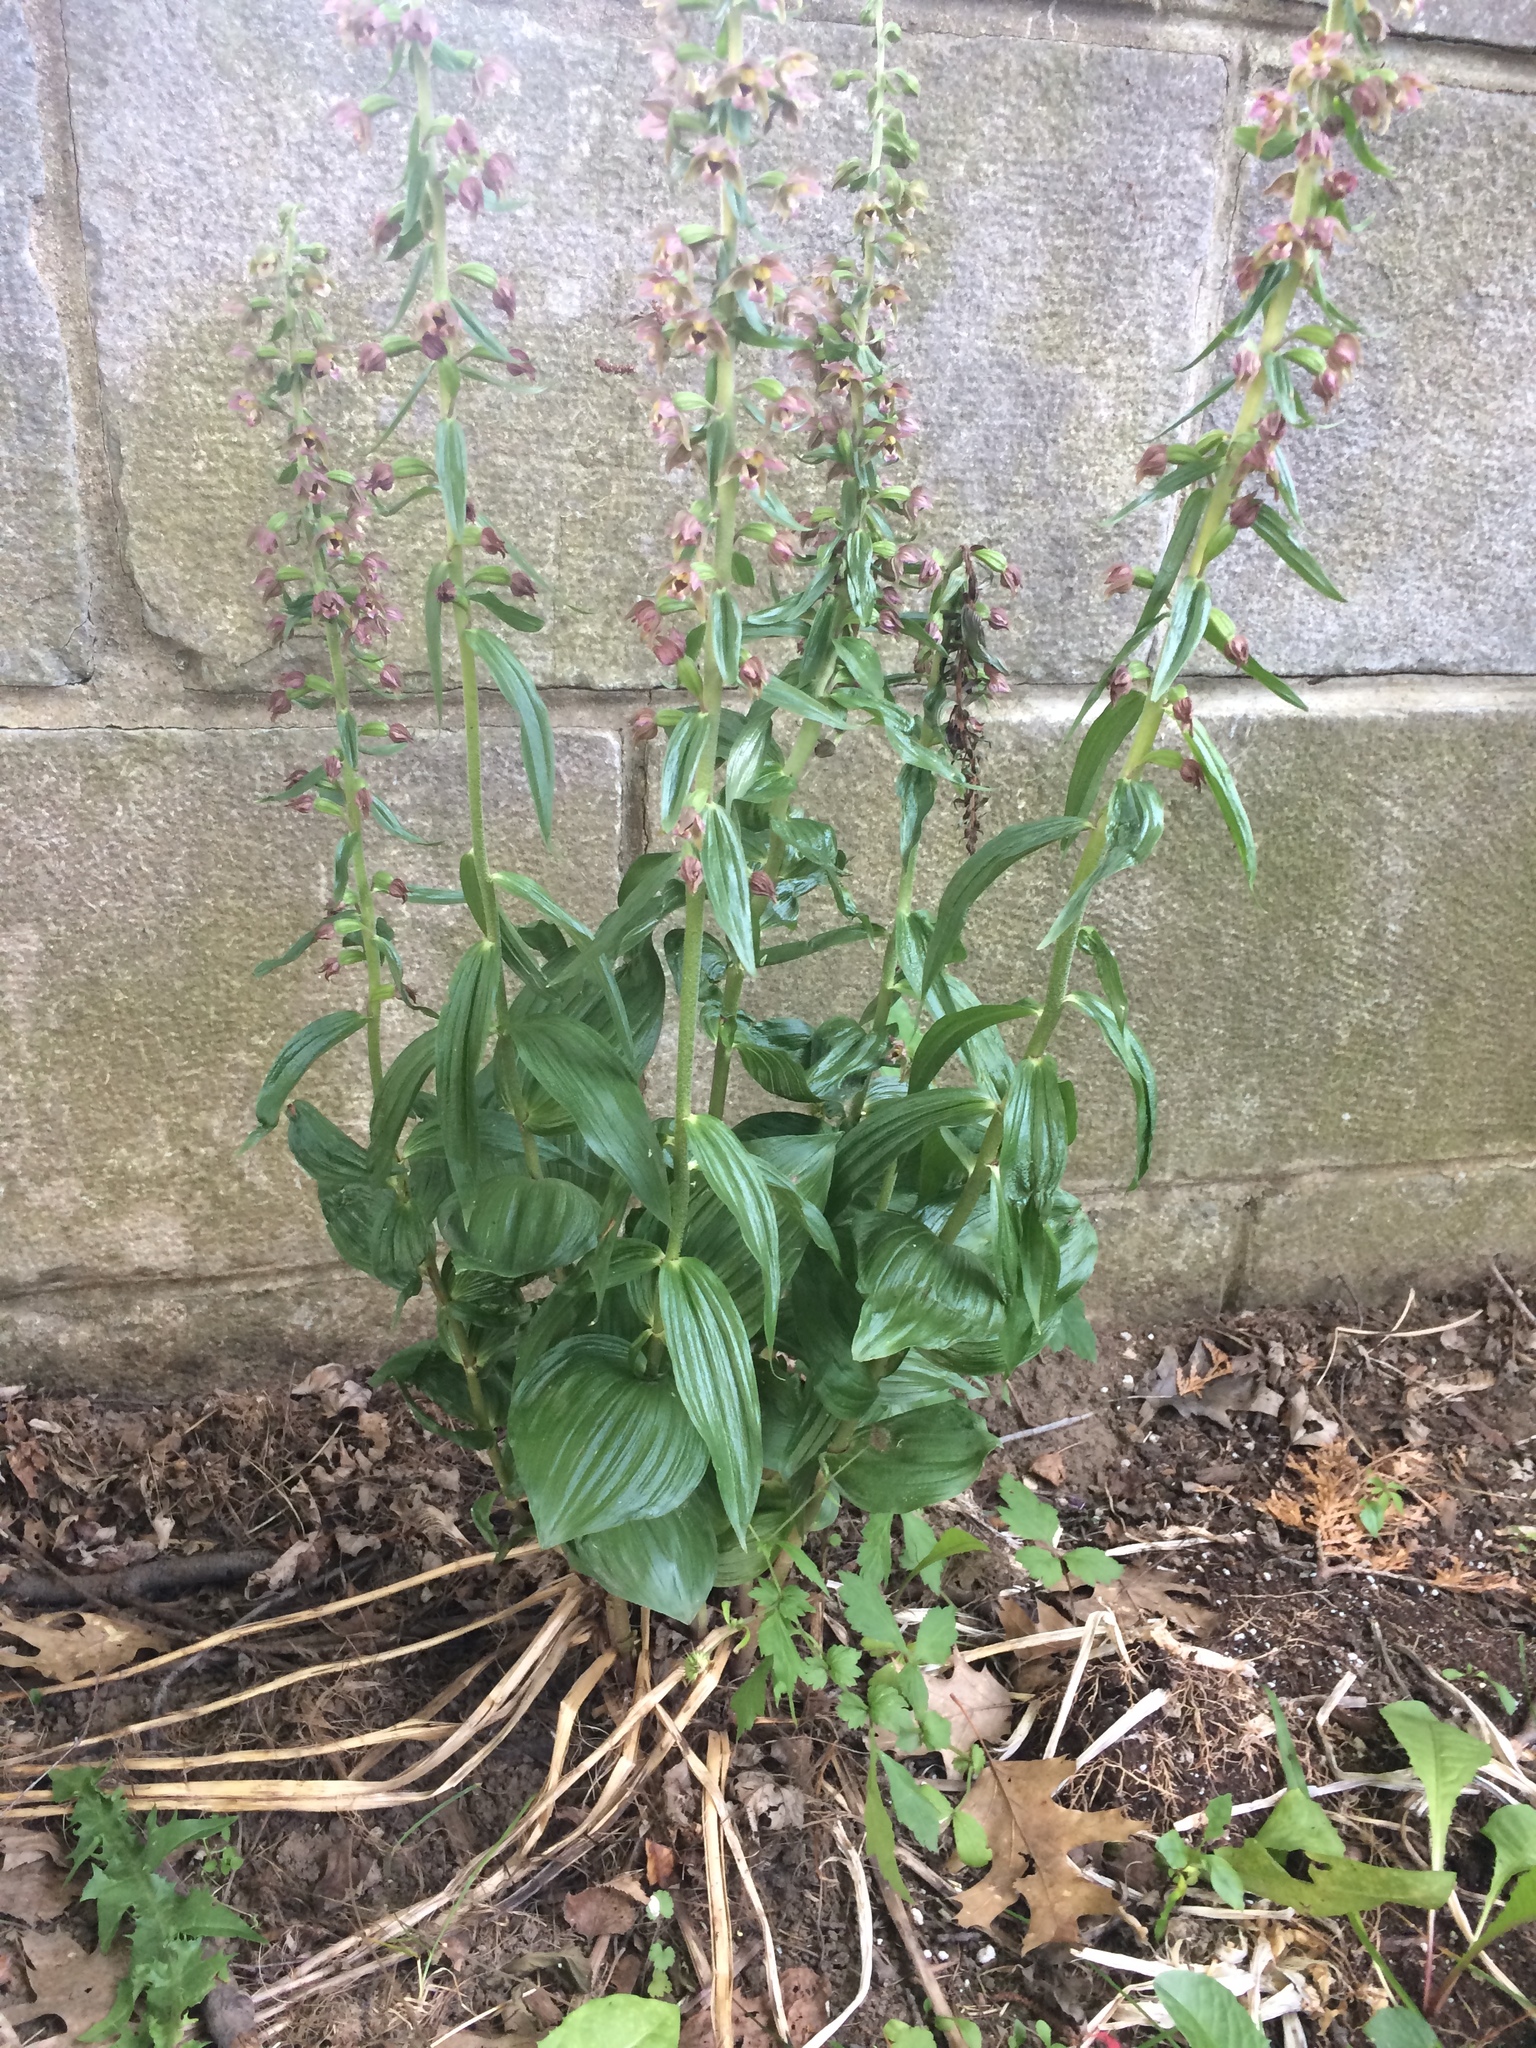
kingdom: Plantae
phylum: Tracheophyta
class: Liliopsida
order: Asparagales
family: Orchidaceae
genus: Epipactis
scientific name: Epipactis helleborine
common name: Broad-leaved helleborine
